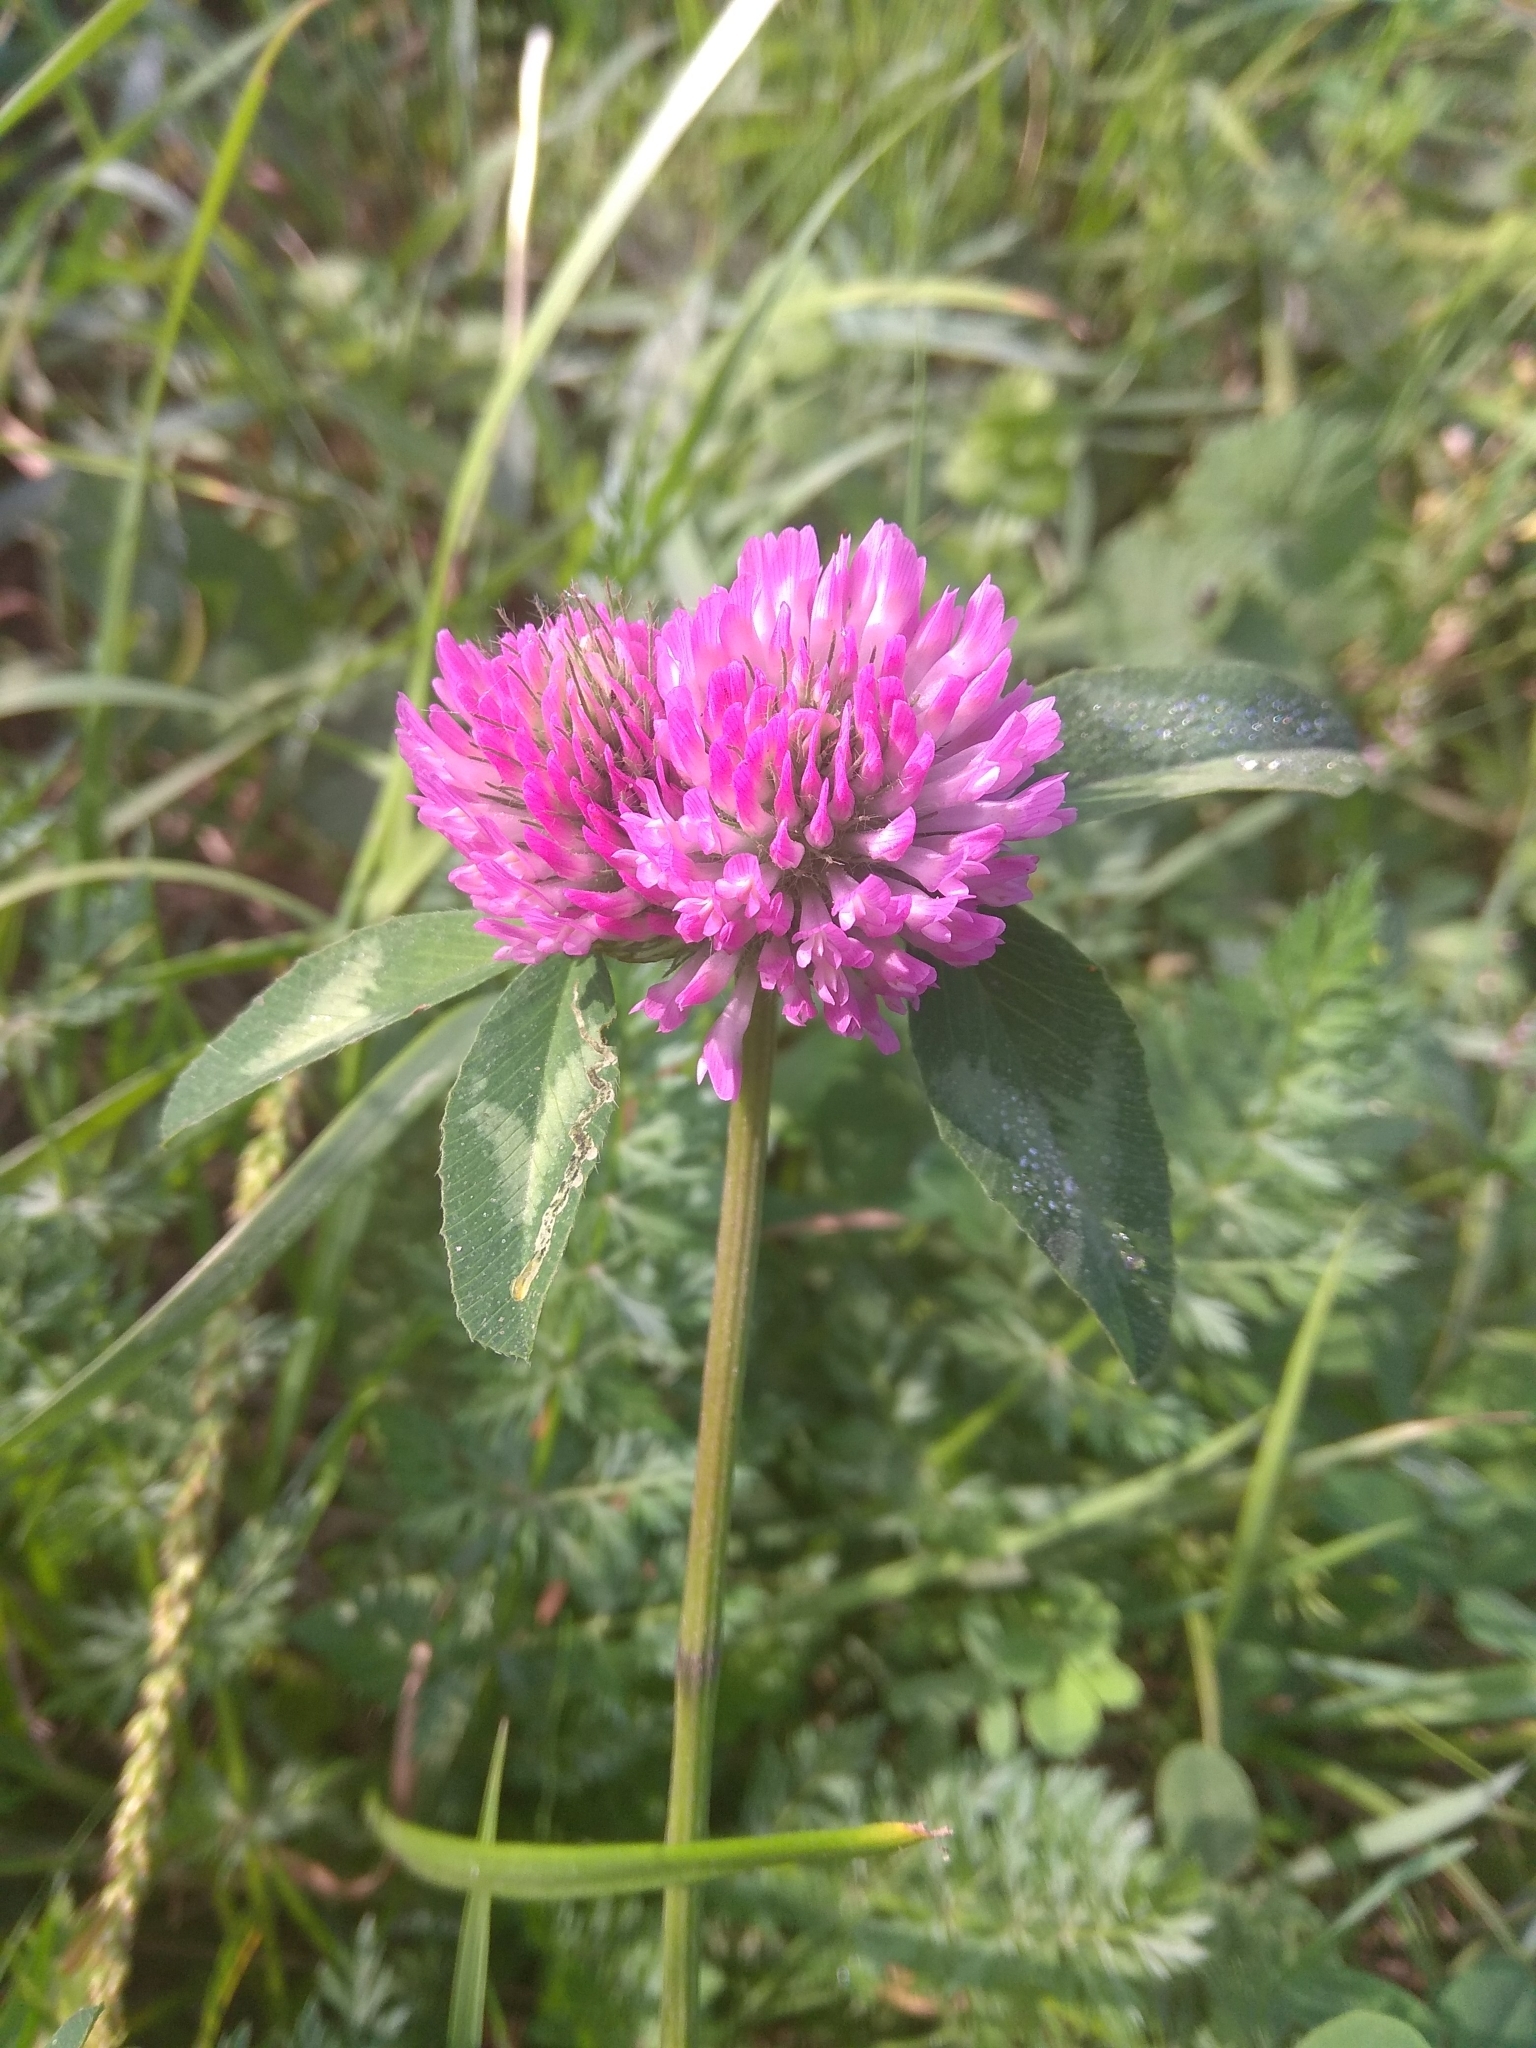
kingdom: Plantae
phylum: Tracheophyta
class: Magnoliopsida
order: Fabales
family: Fabaceae
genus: Trifolium
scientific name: Trifolium pratense
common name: Red clover
